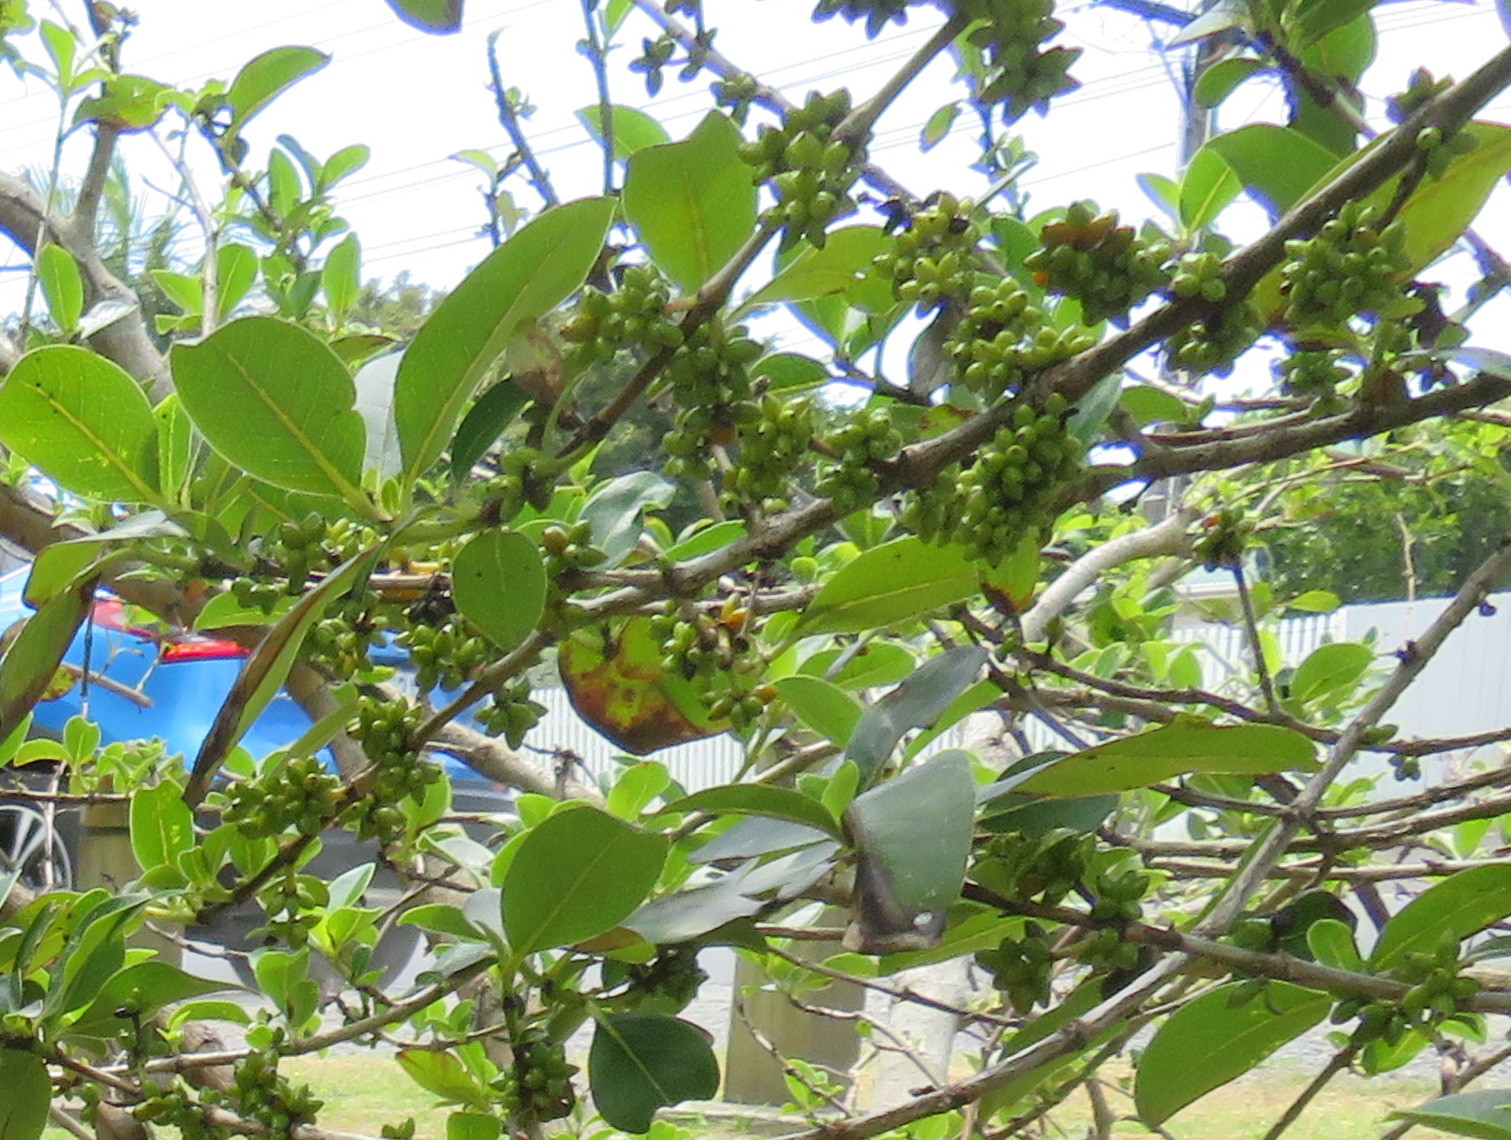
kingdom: Plantae
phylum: Tracheophyta
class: Magnoliopsida
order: Gentianales
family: Rubiaceae
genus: Coprosma
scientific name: Coprosma robusta
